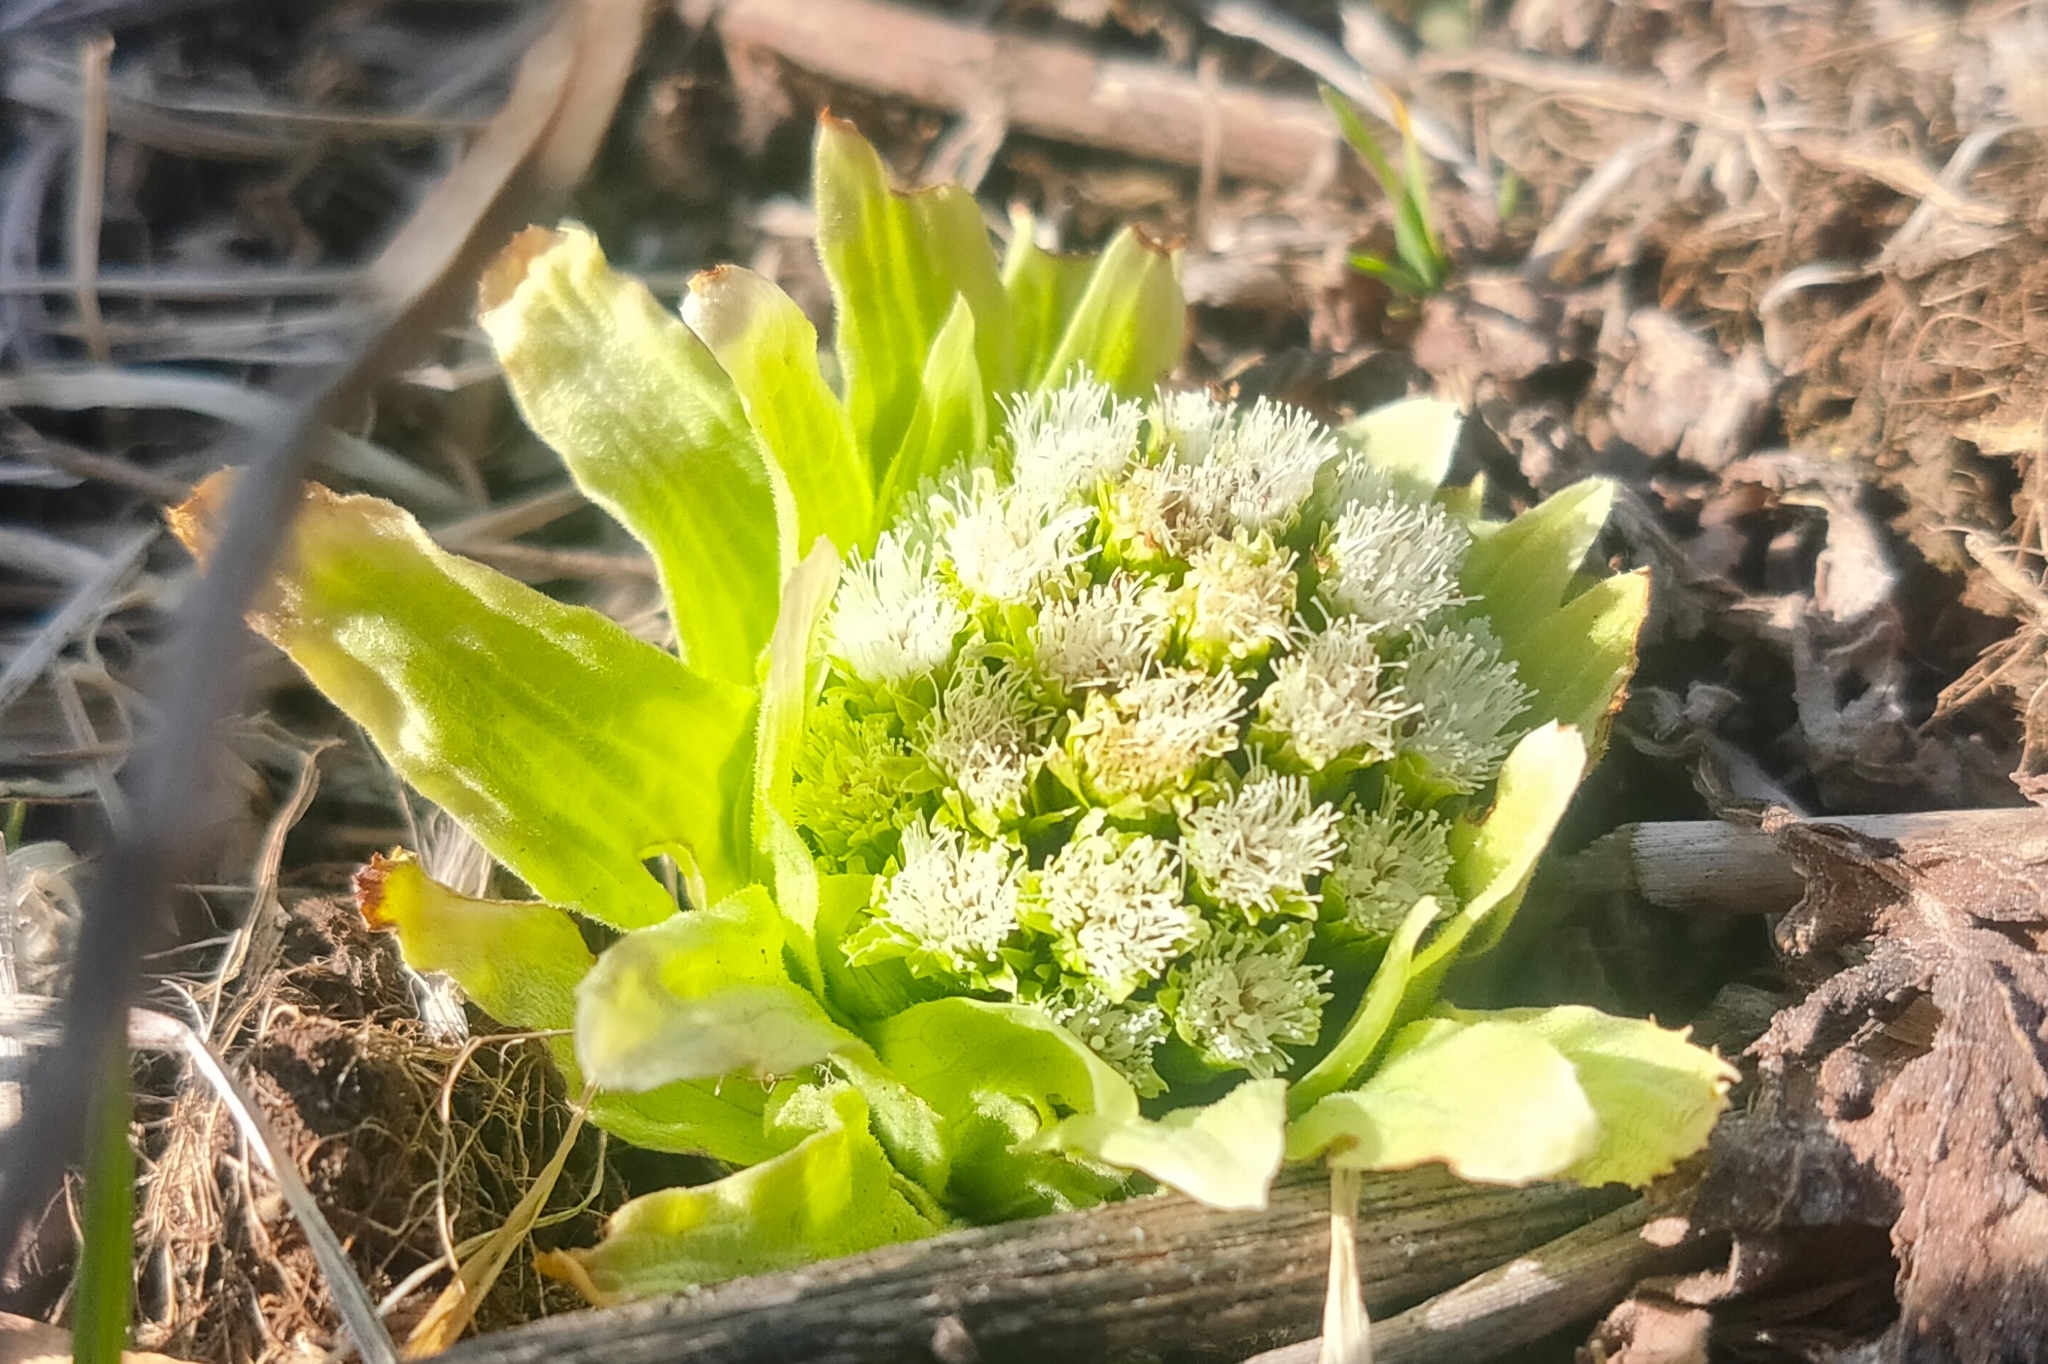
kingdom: Plantae
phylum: Tracheophyta
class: Magnoliopsida
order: Asterales
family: Asteraceae
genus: Petasites
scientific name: Petasites japonicus
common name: Giant butterbur
